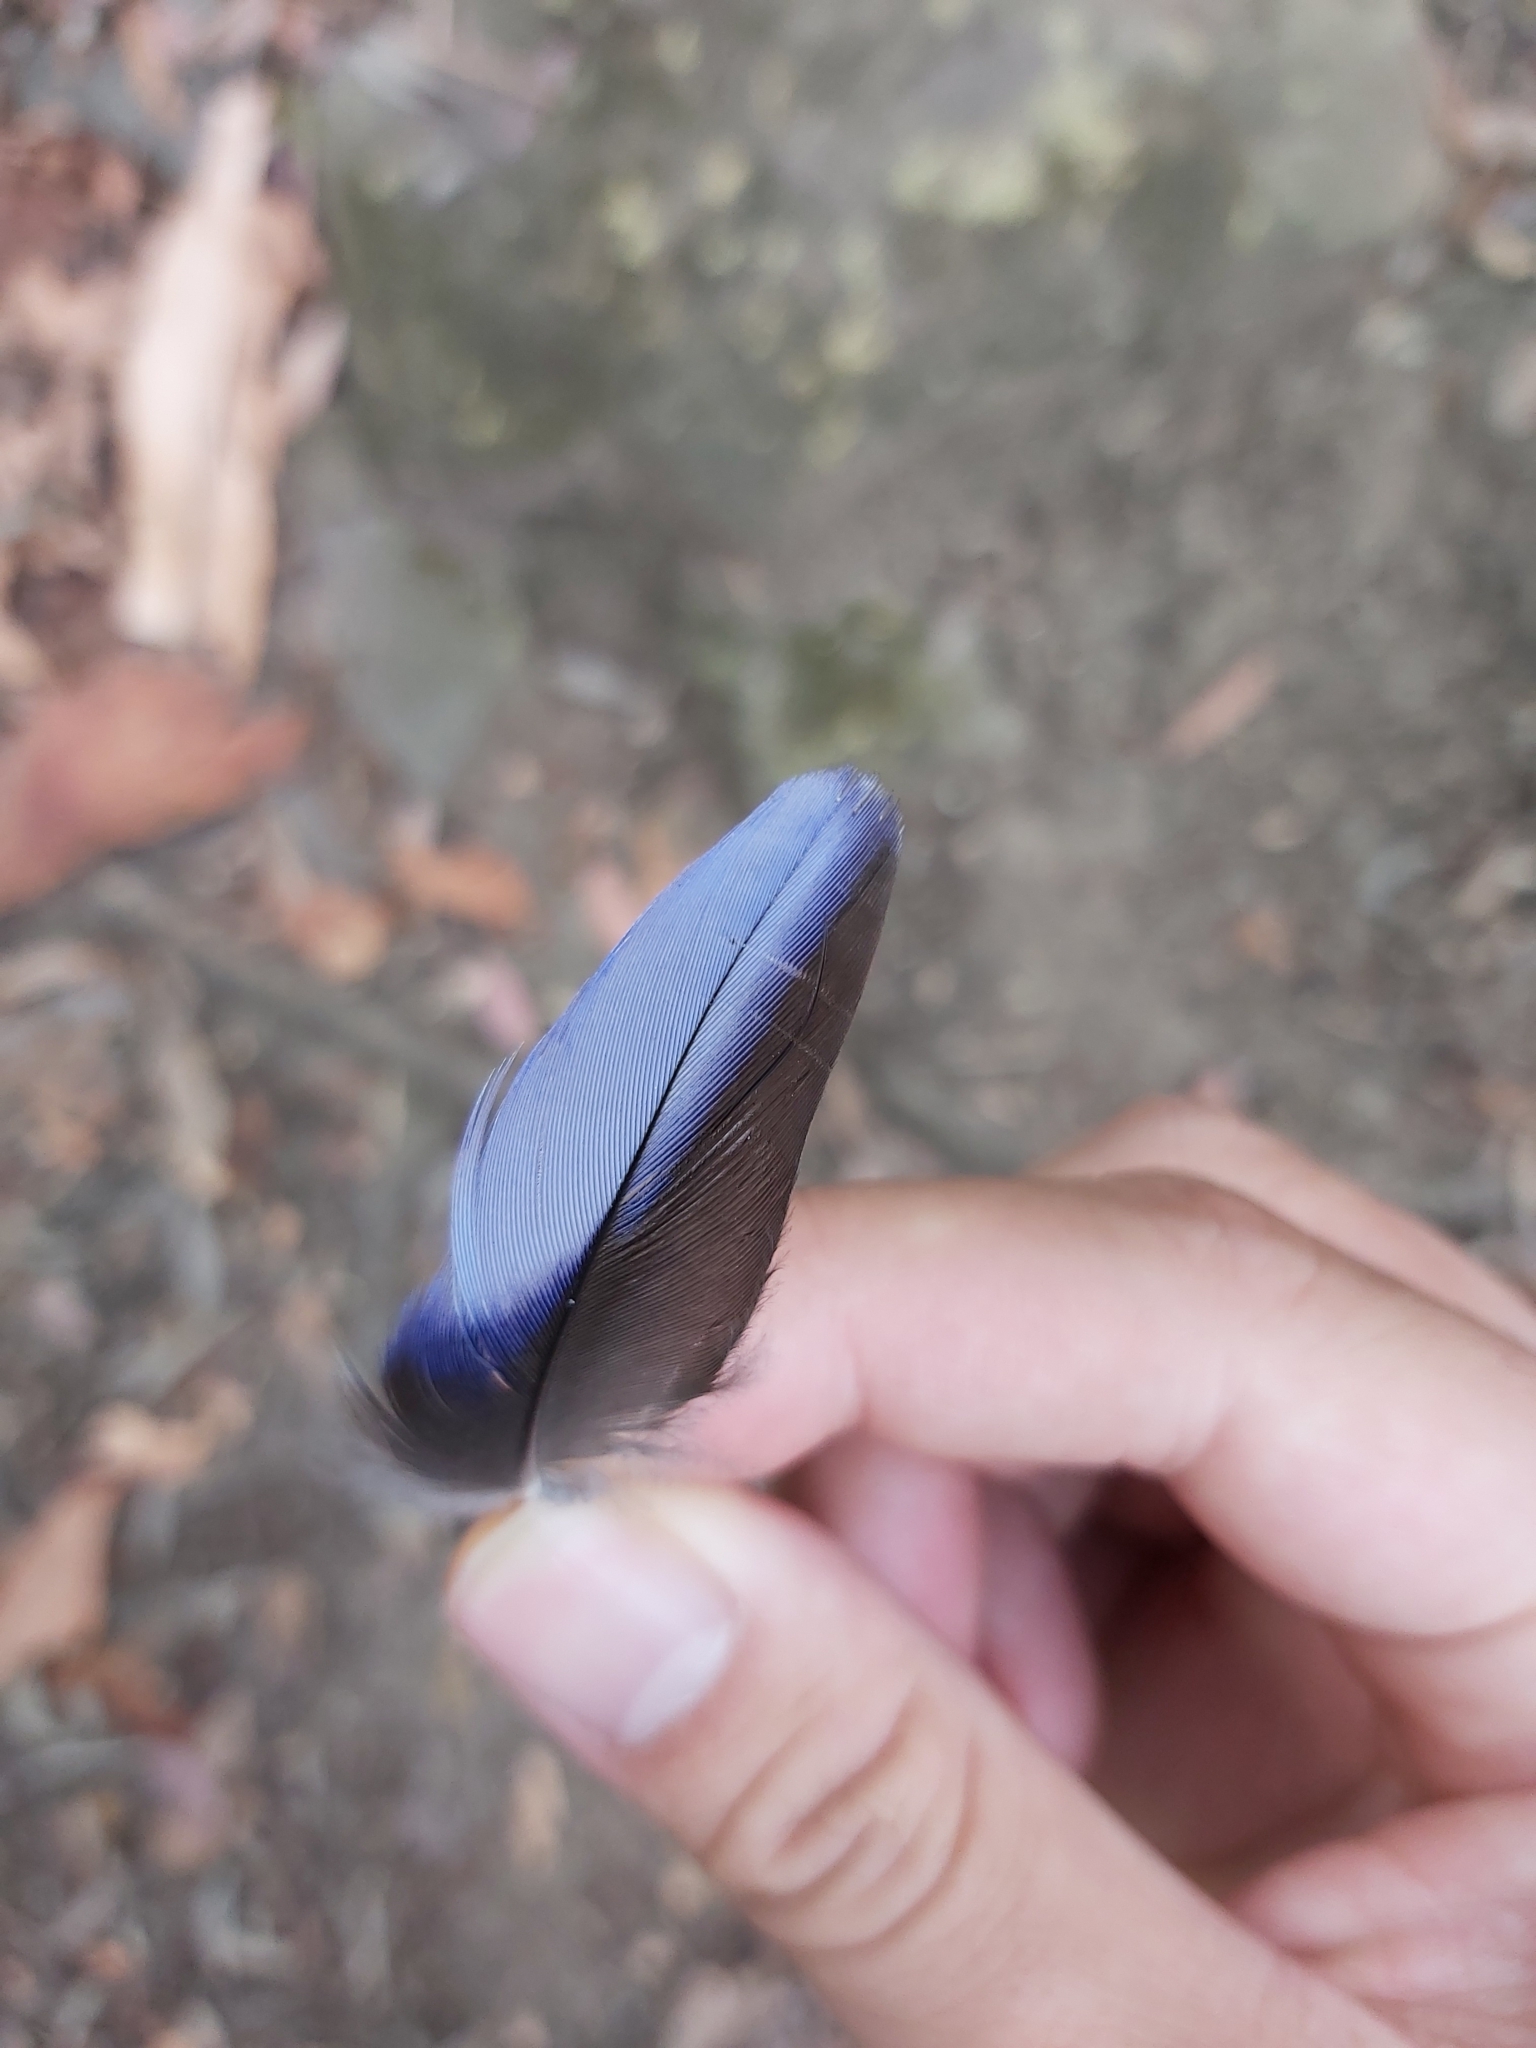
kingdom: Animalia
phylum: Chordata
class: Aves
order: Psittaciformes
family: Psittacidae
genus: Platycercus
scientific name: Platycercus elegans
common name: Crimson rosella
